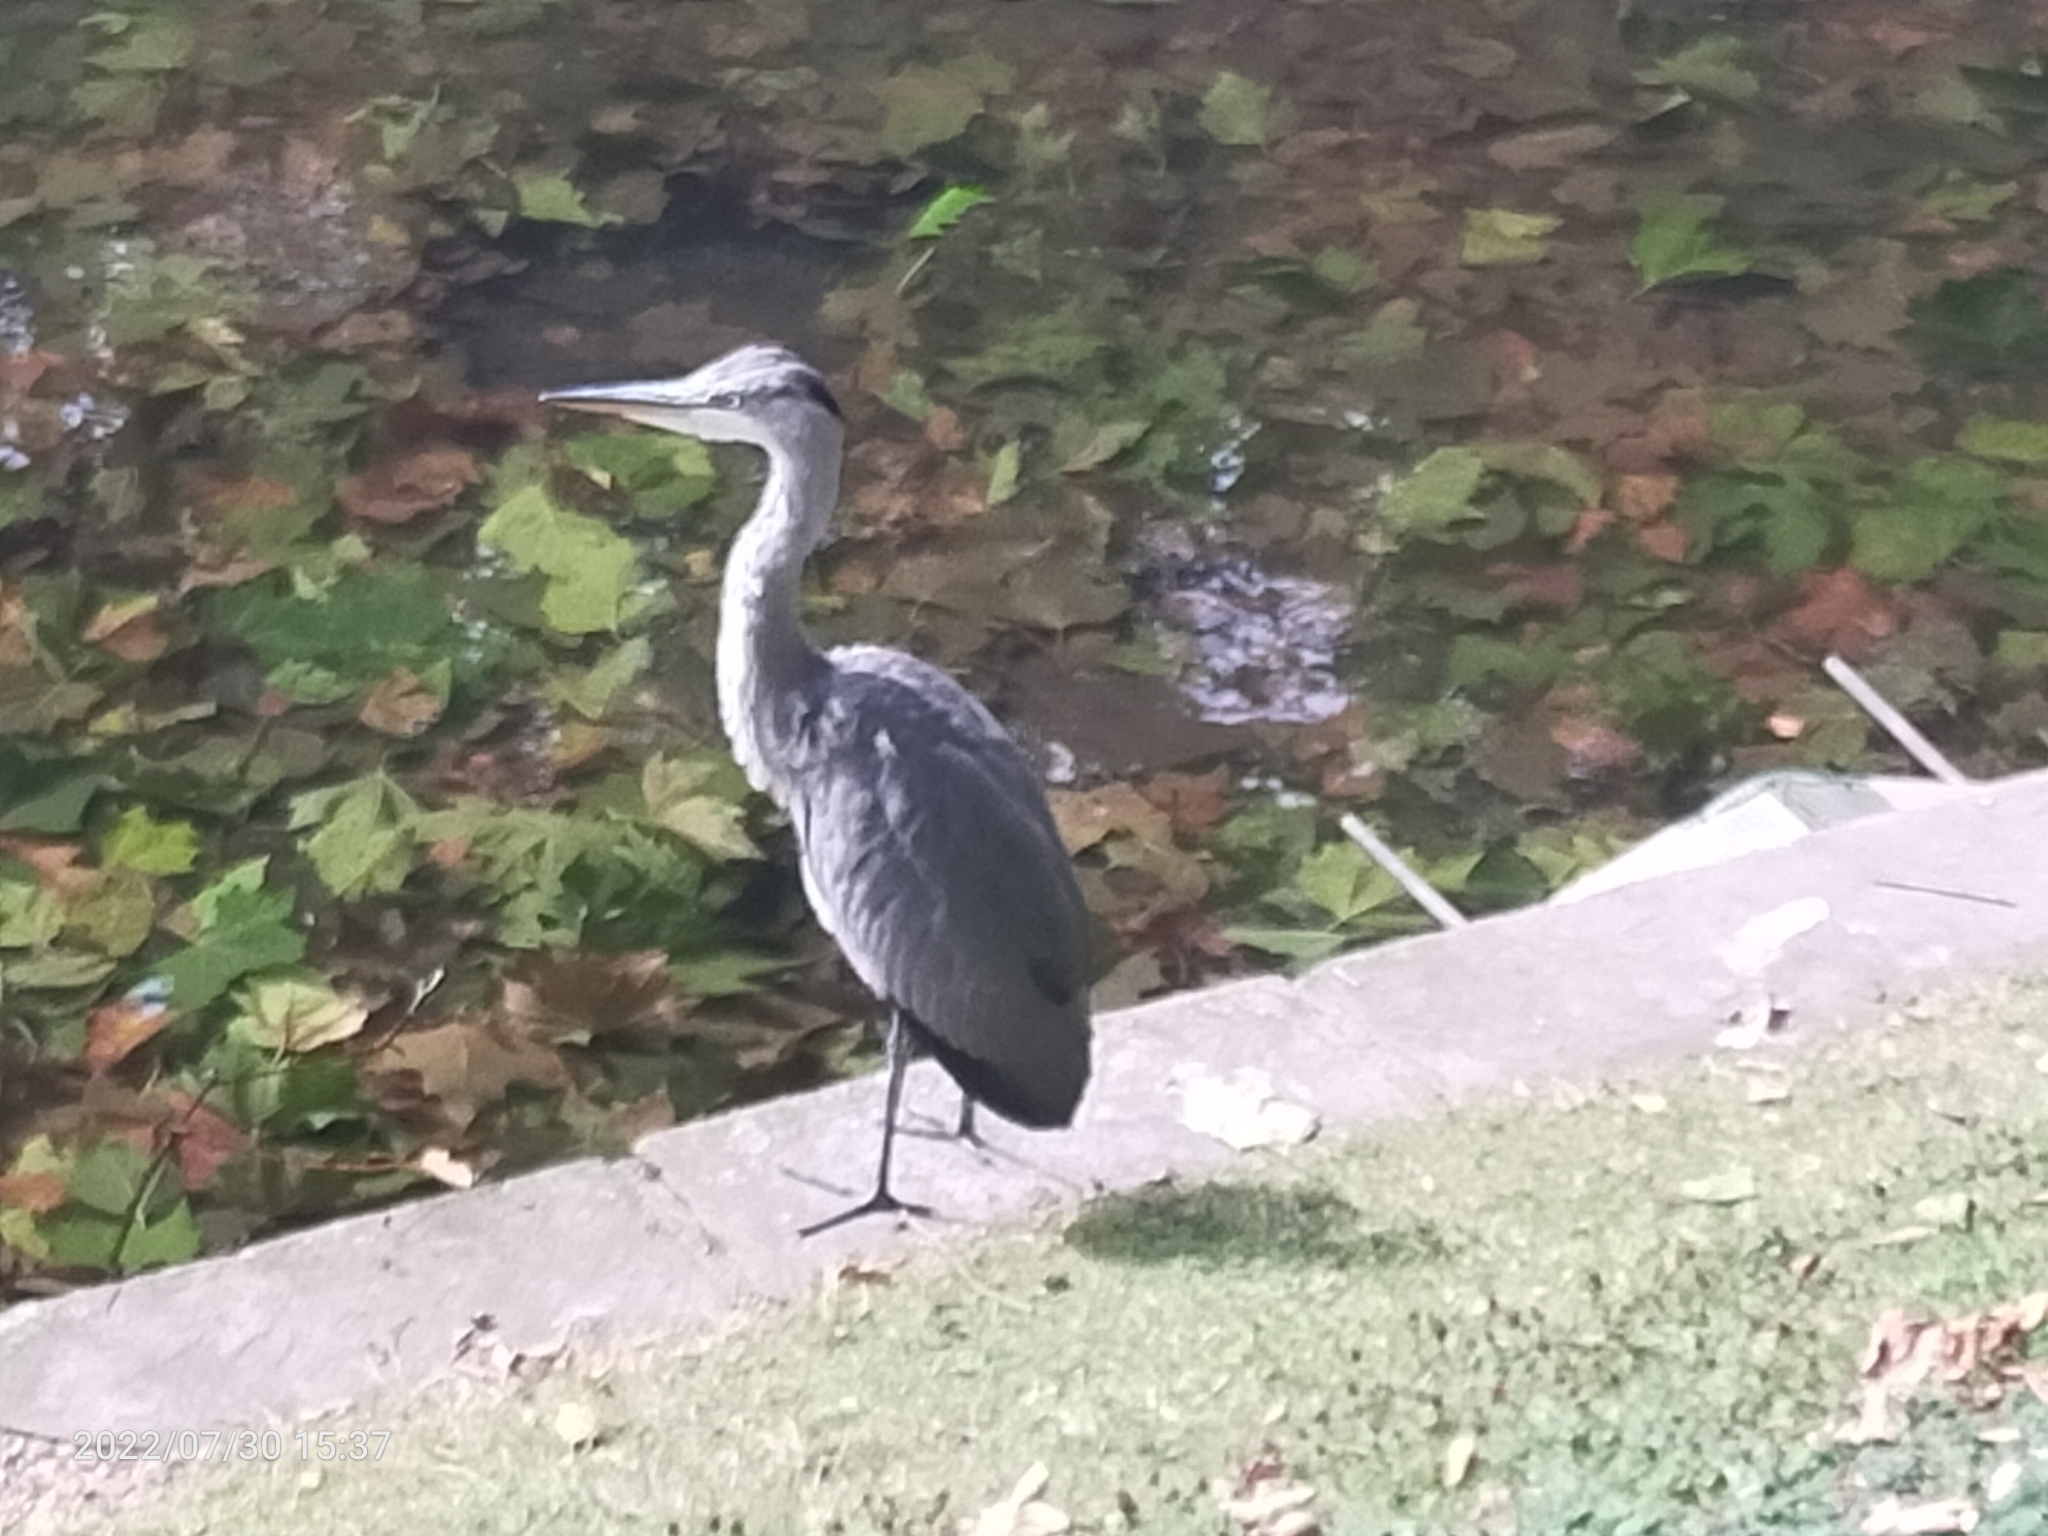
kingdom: Animalia
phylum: Chordata
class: Aves
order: Pelecaniformes
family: Ardeidae
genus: Ardea
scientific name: Ardea cinerea
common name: Grey heron
